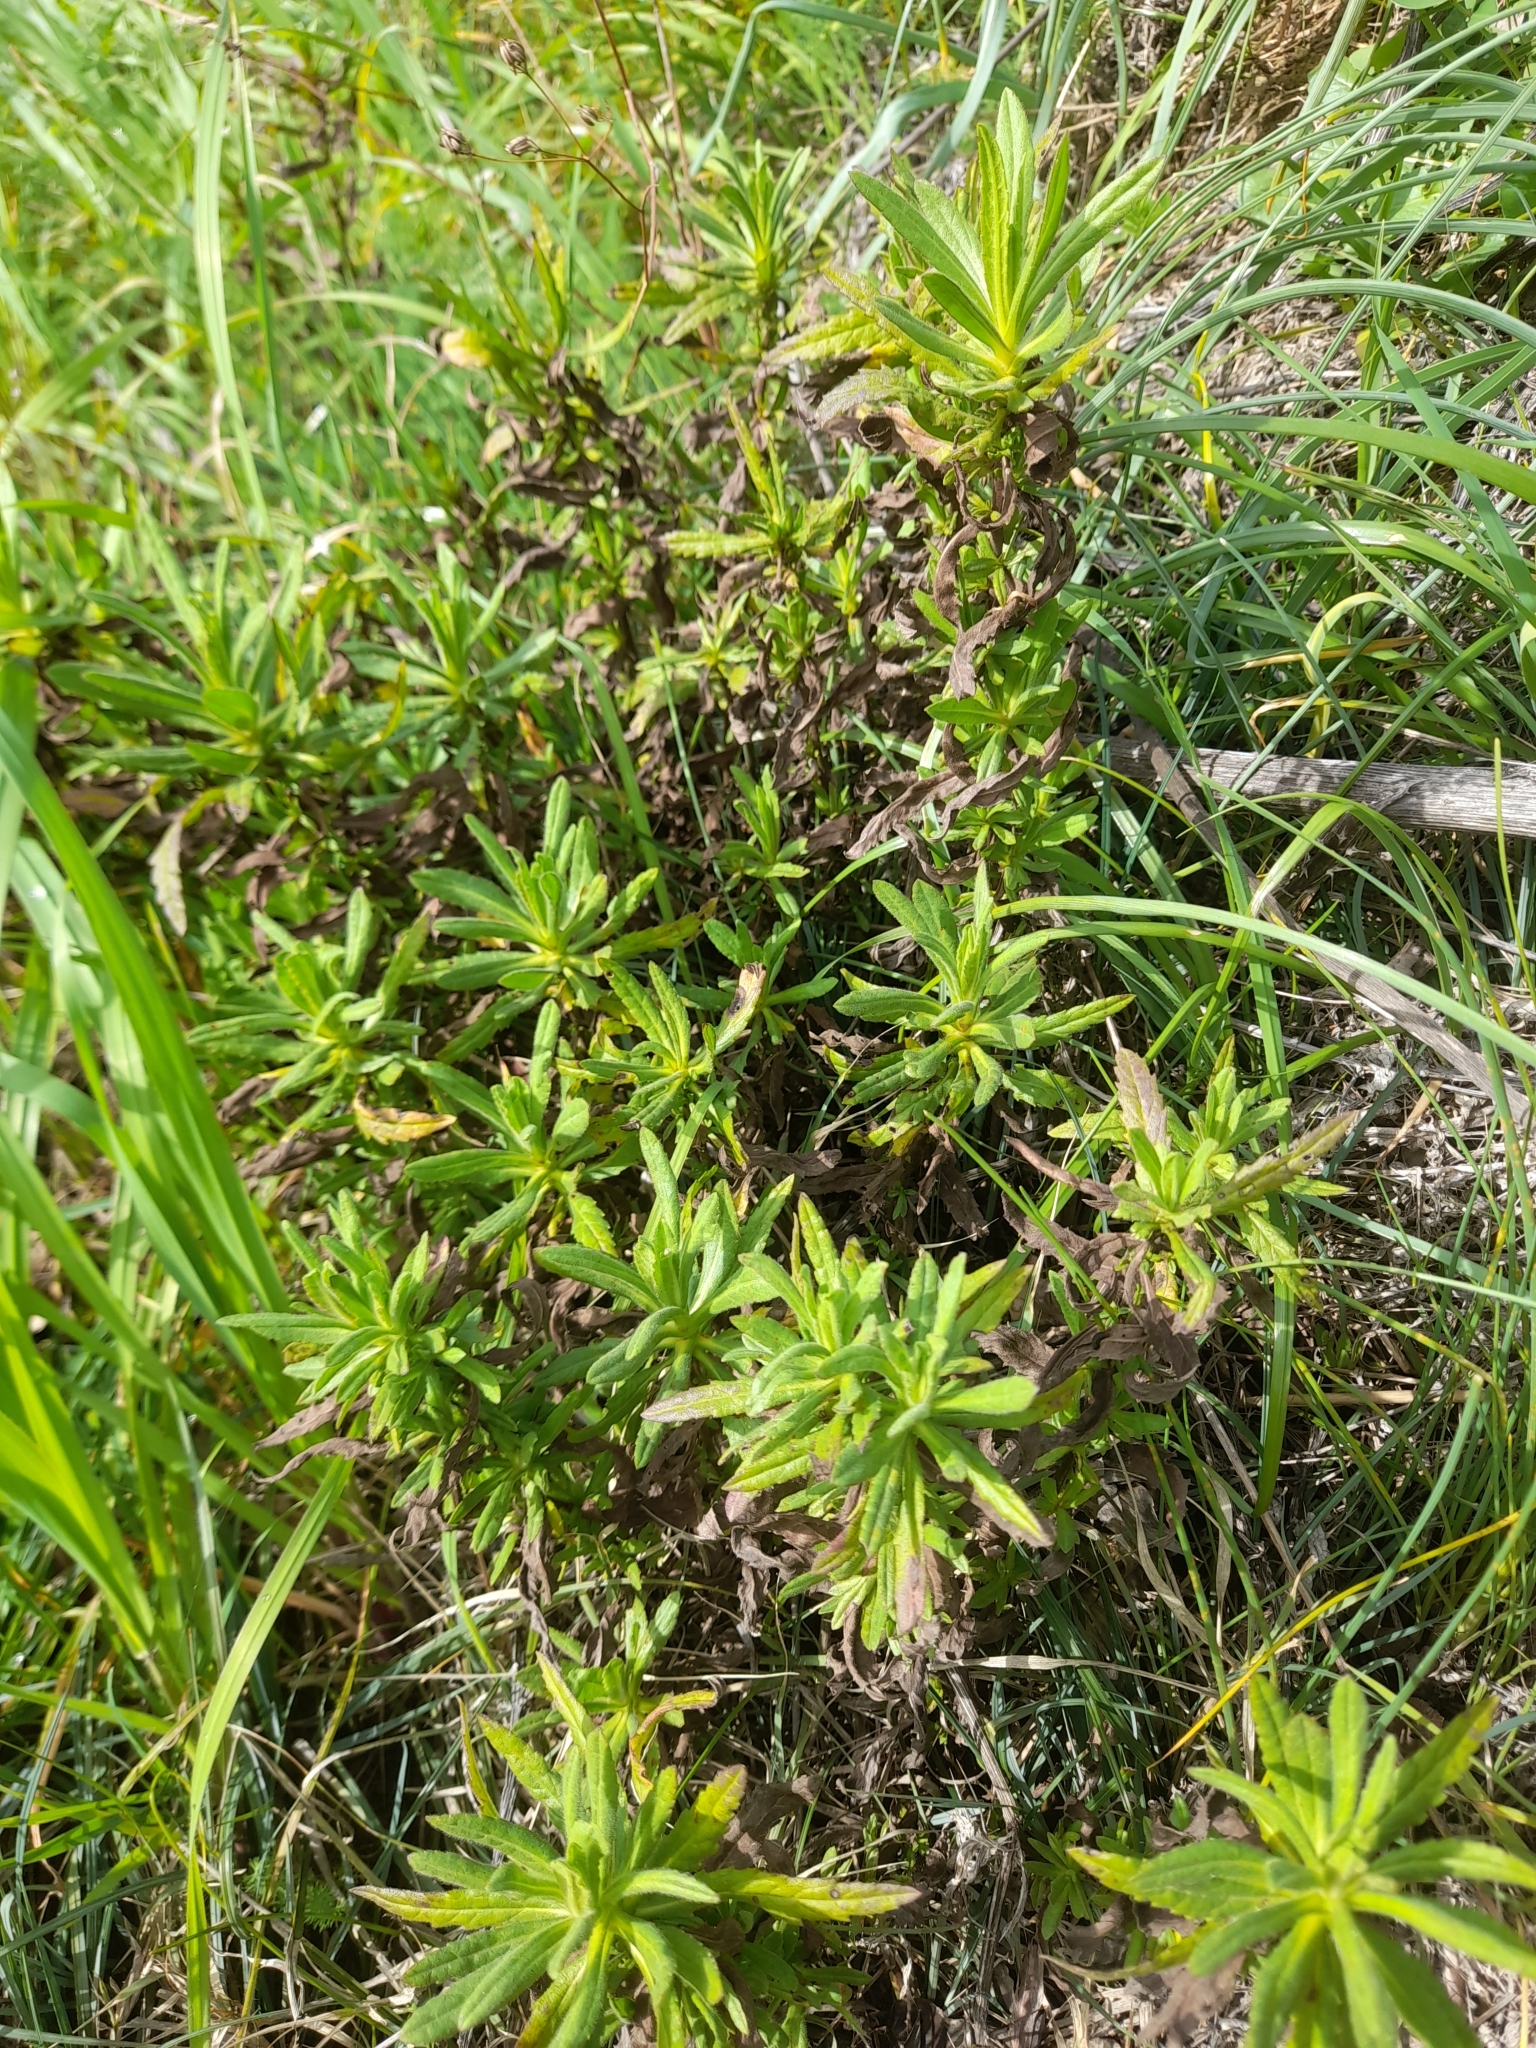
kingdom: Plantae
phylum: Tracheophyta
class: Magnoliopsida
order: Asterales
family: Asteraceae
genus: Dittrichia
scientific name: Dittrichia viscosa
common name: Woody fleabane
